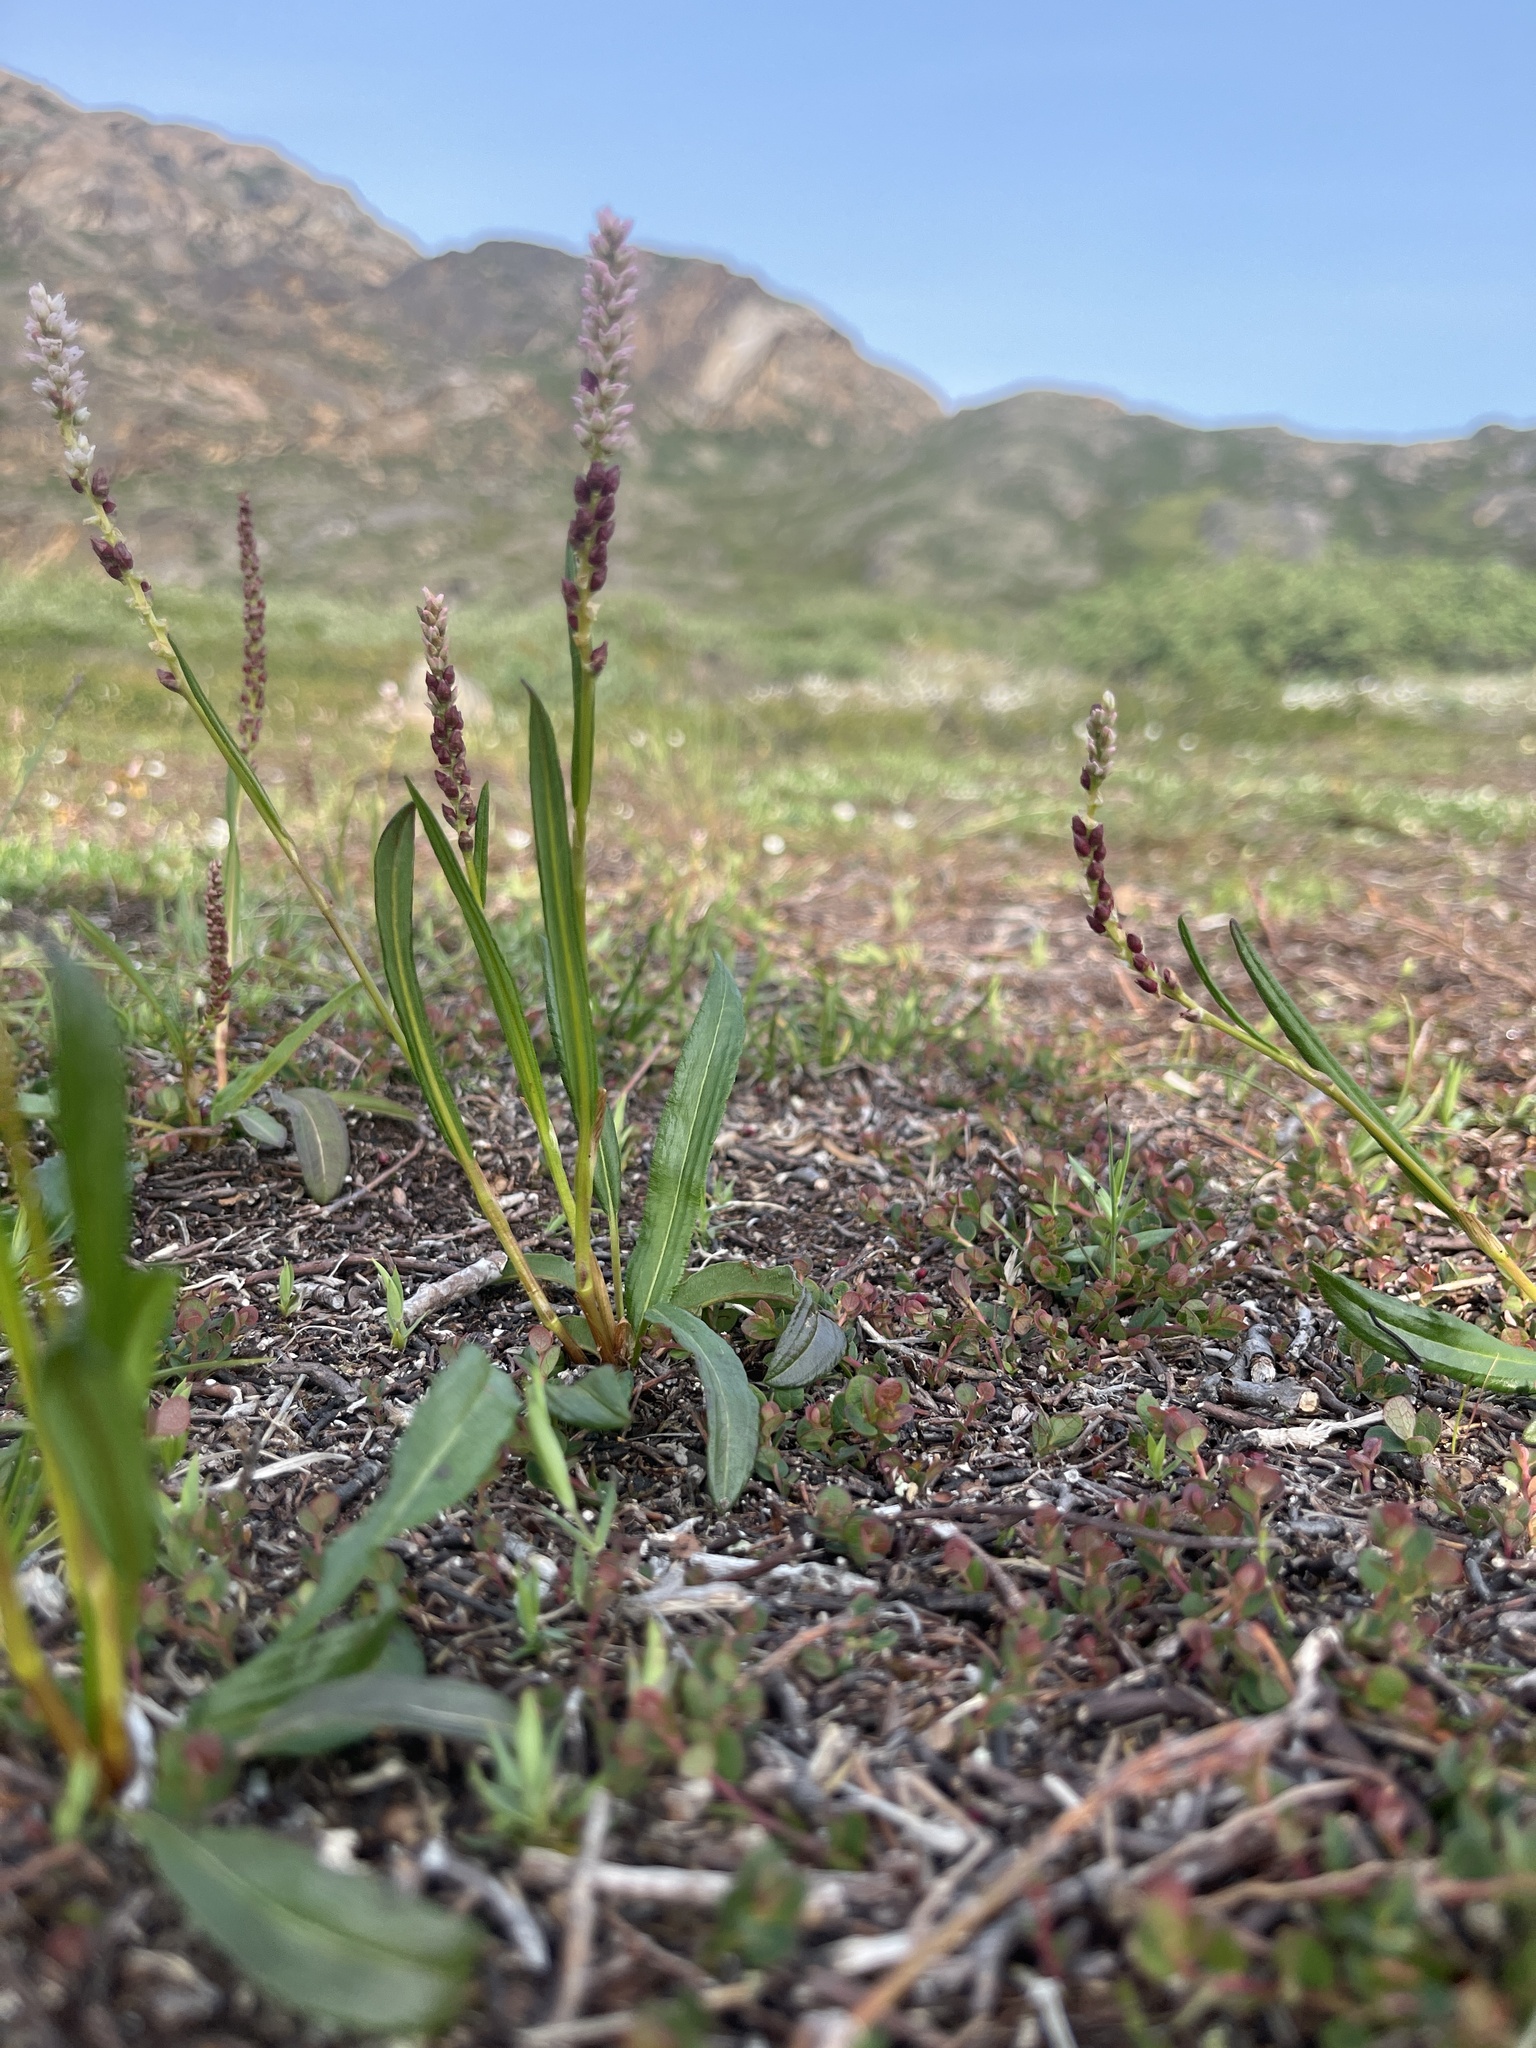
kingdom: Plantae
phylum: Tracheophyta
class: Magnoliopsida
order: Caryophyllales
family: Polygonaceae
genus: Bistorta
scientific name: Bistorta vivipara
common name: Alpine bistort
